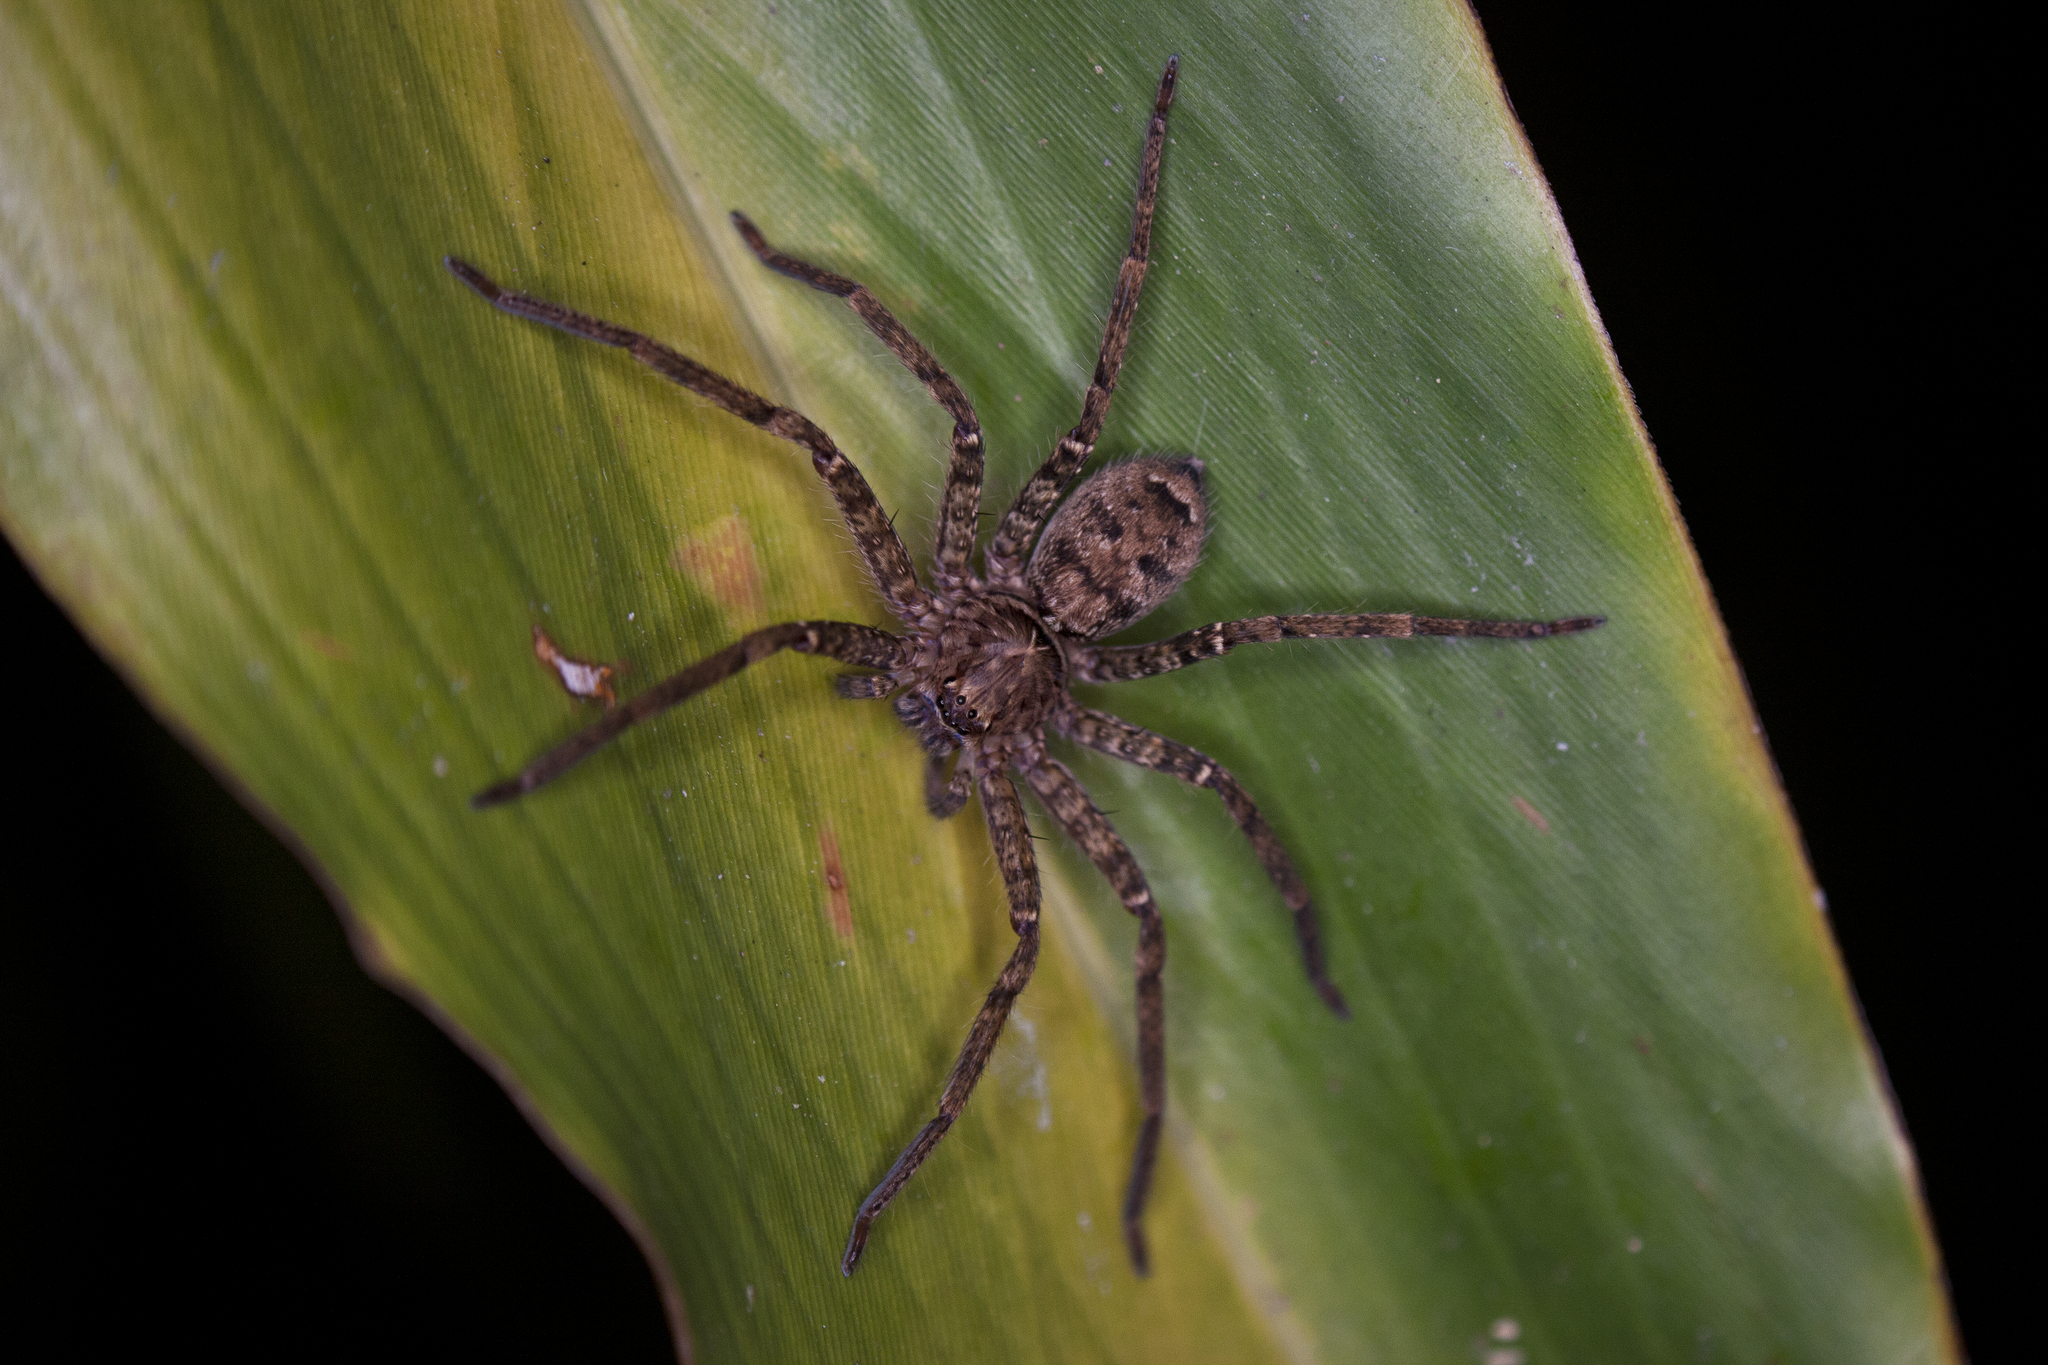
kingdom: Animalia
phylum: Arthropoda
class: Arachnida
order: Araneae
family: Sparassidae
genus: Heteropoda
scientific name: Heteropoda jugulans
